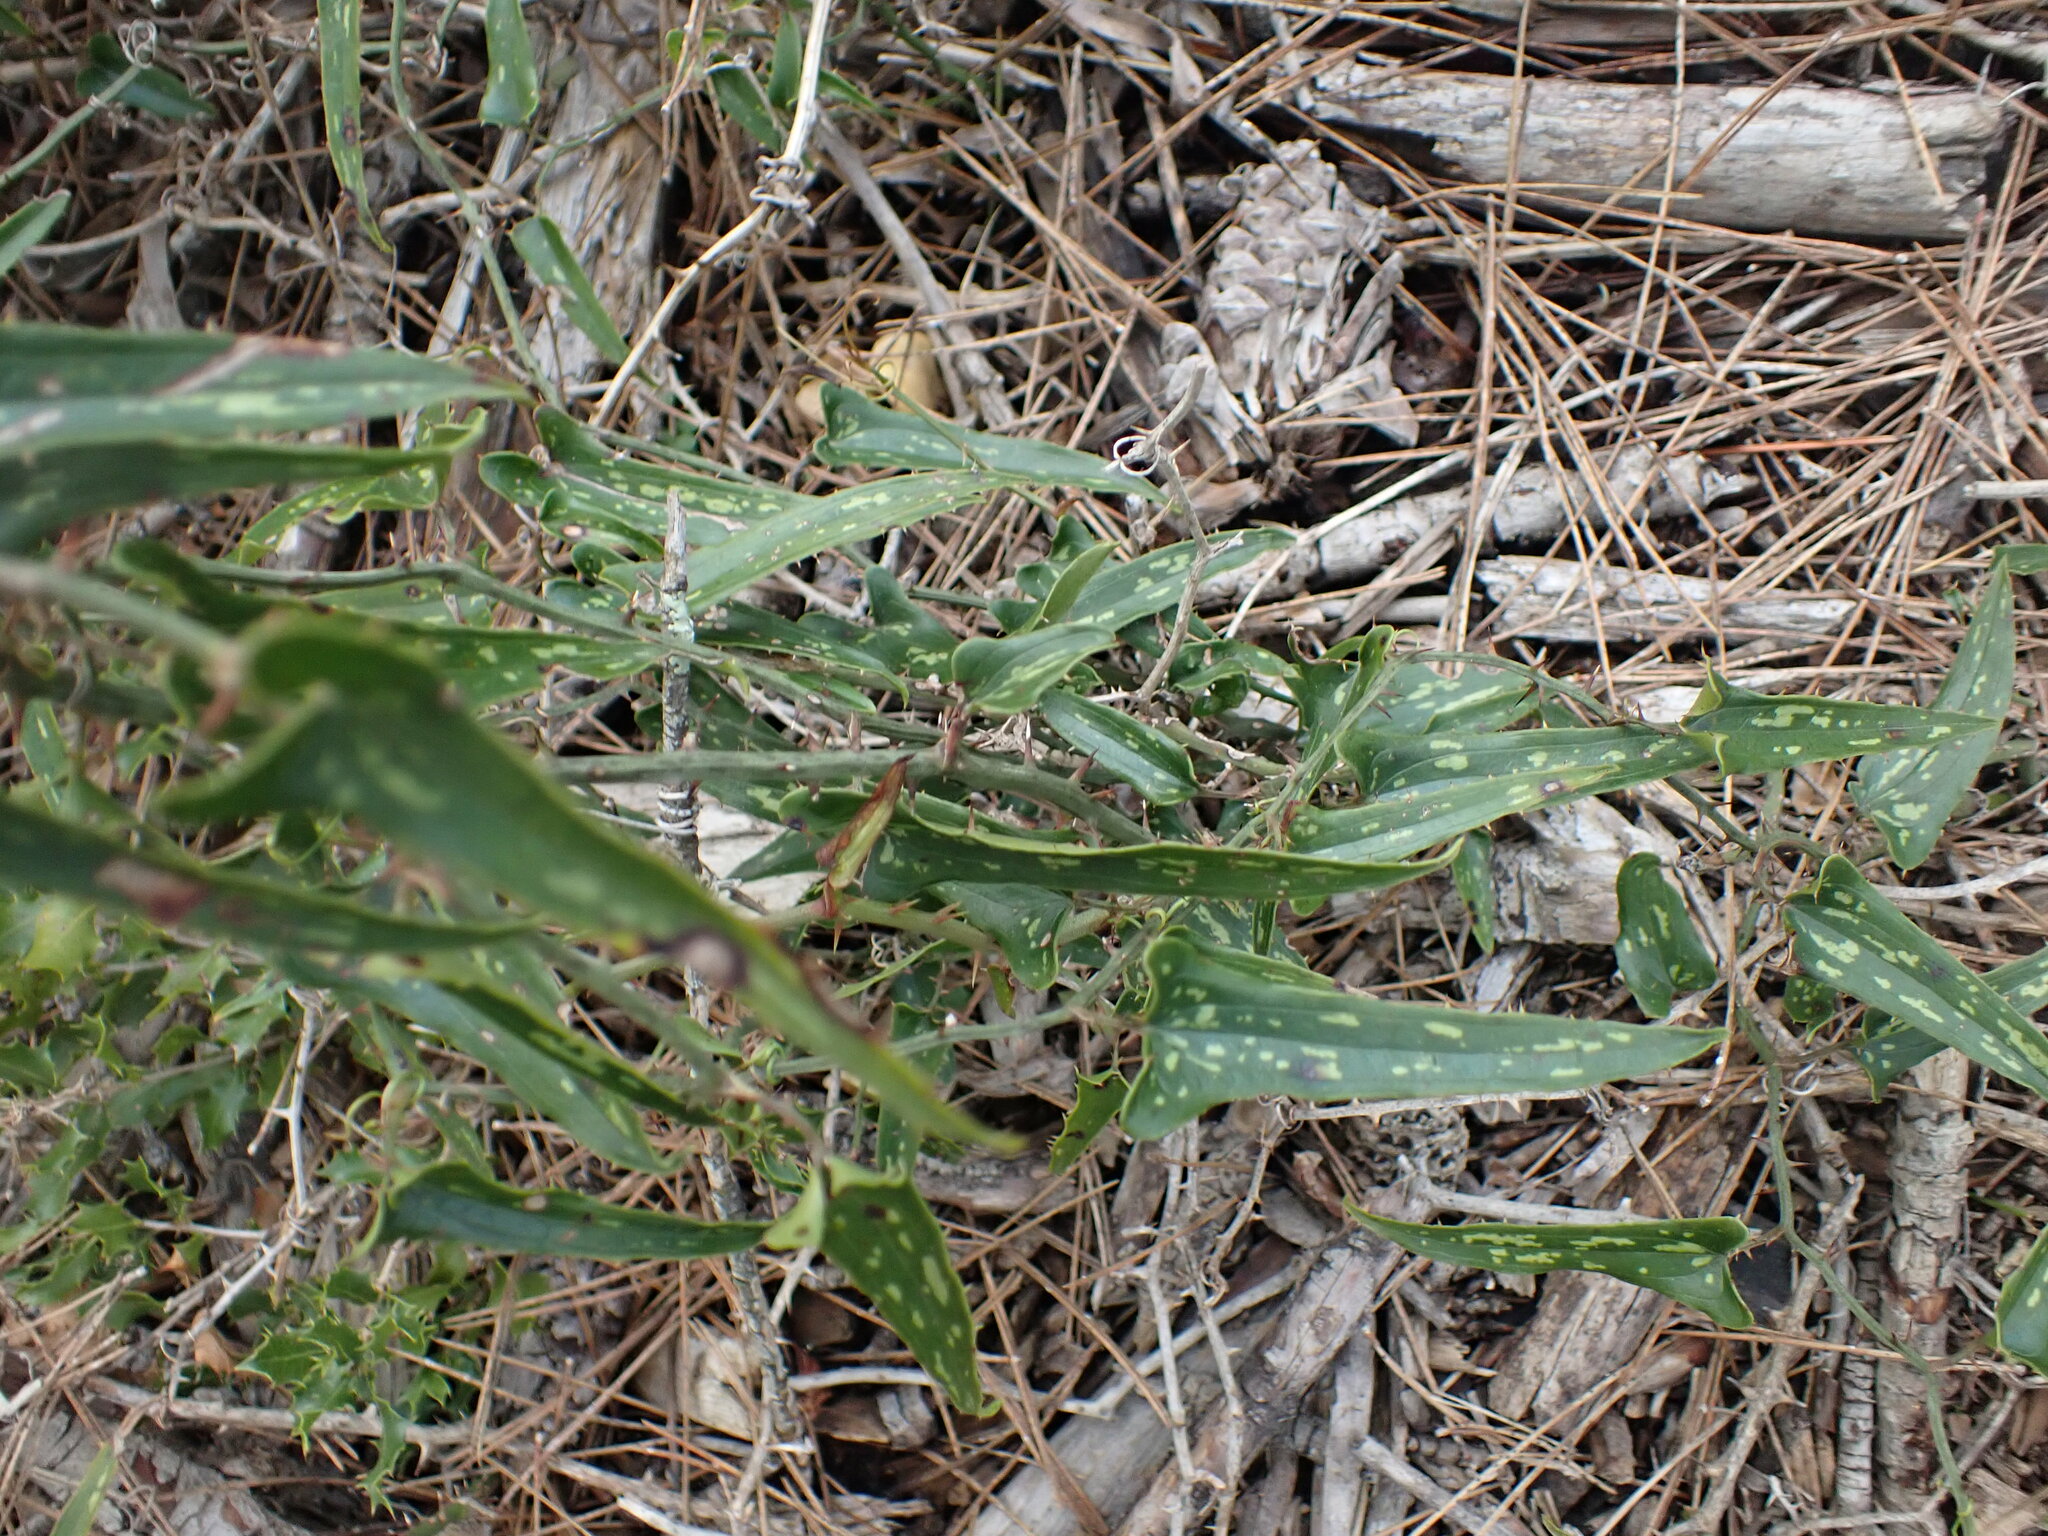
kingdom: Plantae
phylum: Tracheophyta
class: Liliopsida
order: Liliales
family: Smilacaceae
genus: Smilax
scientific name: Smilax aspera
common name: Common smilax
